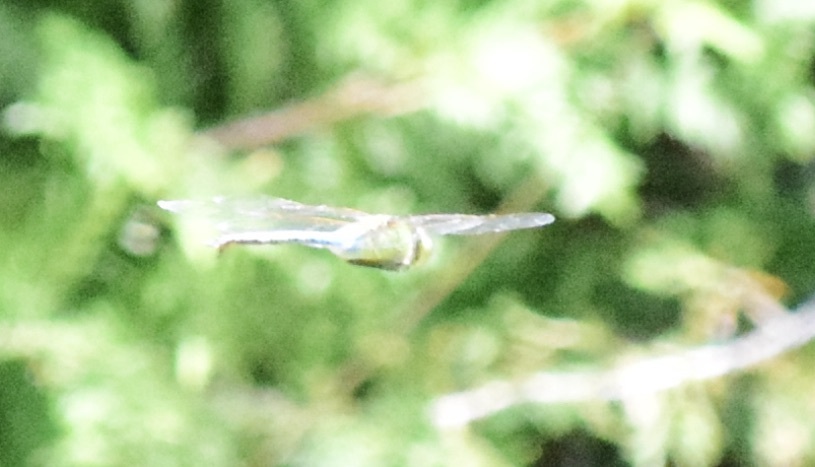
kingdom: Animalia
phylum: Arthropoda
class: Insecta
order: Odonata
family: Aeshnidae
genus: Anax
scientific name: Anax junius
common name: Common green darner
